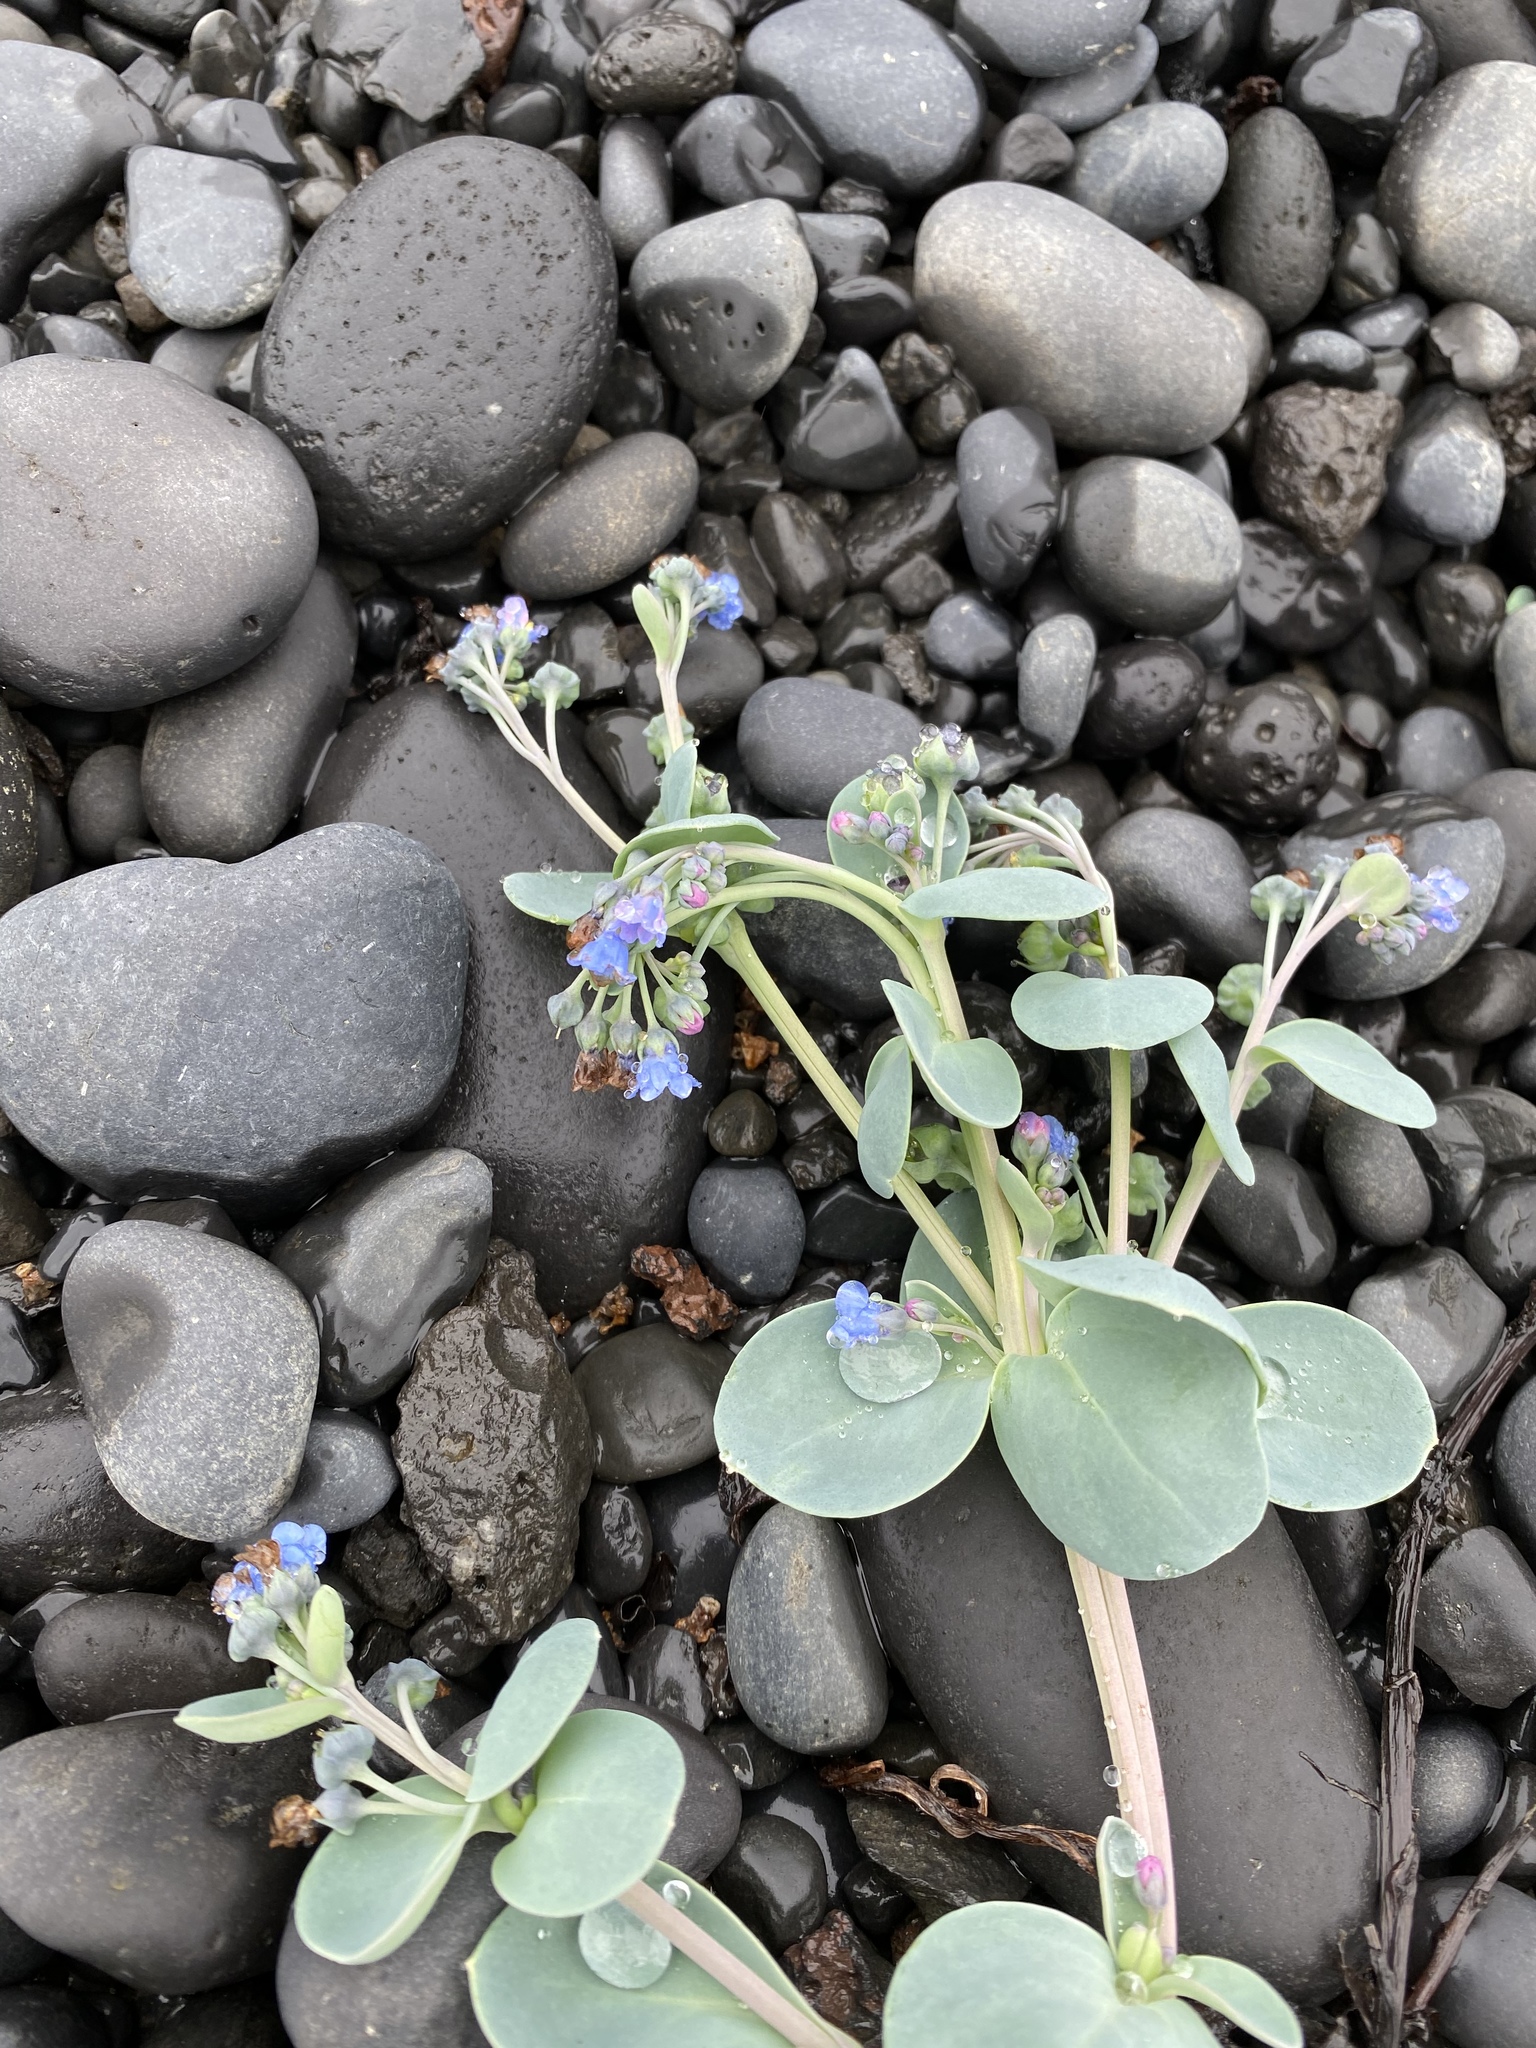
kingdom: Plantae
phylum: Tracheophyta
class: Magnoliopsida
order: Boraginales
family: Boraginaceae
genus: Mertensia
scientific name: Mertensia maritima
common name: Oysterplant
